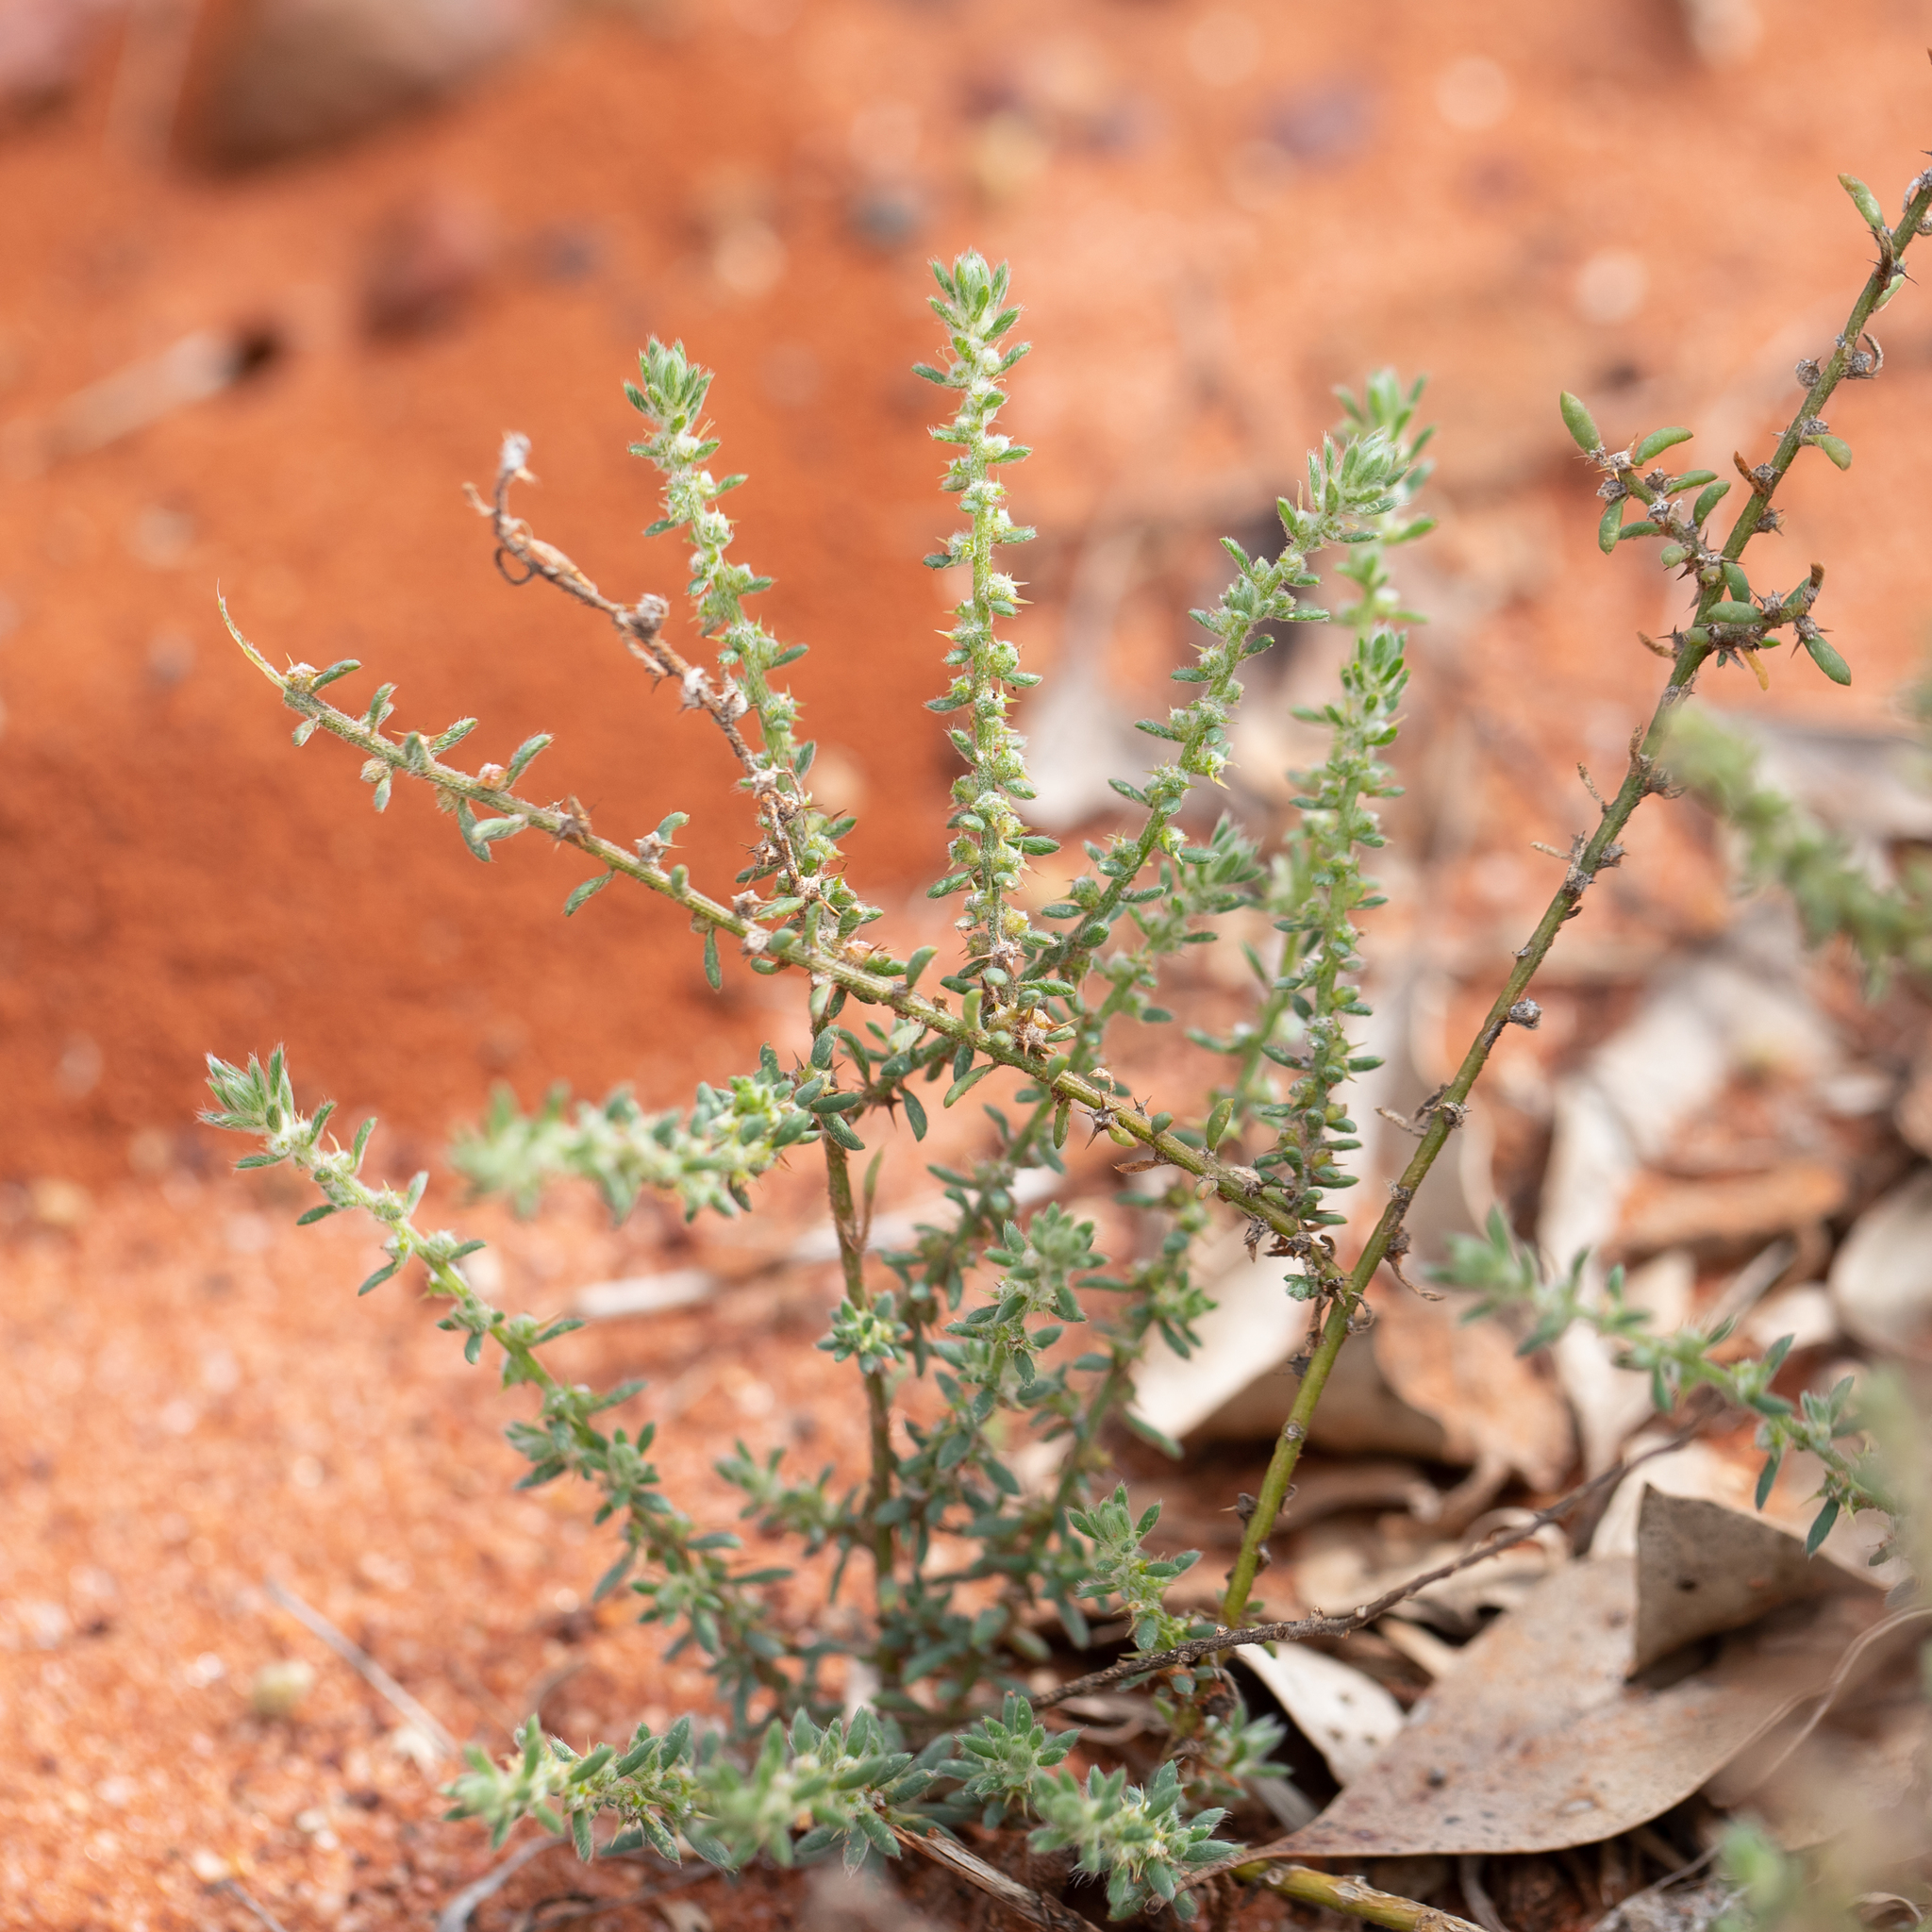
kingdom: Plantae
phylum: Tracheophyta
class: Magnoliopsida
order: Caryophyllales
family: Amaranthaceae
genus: Sclerolaena
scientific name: Sclerolaena convexula
